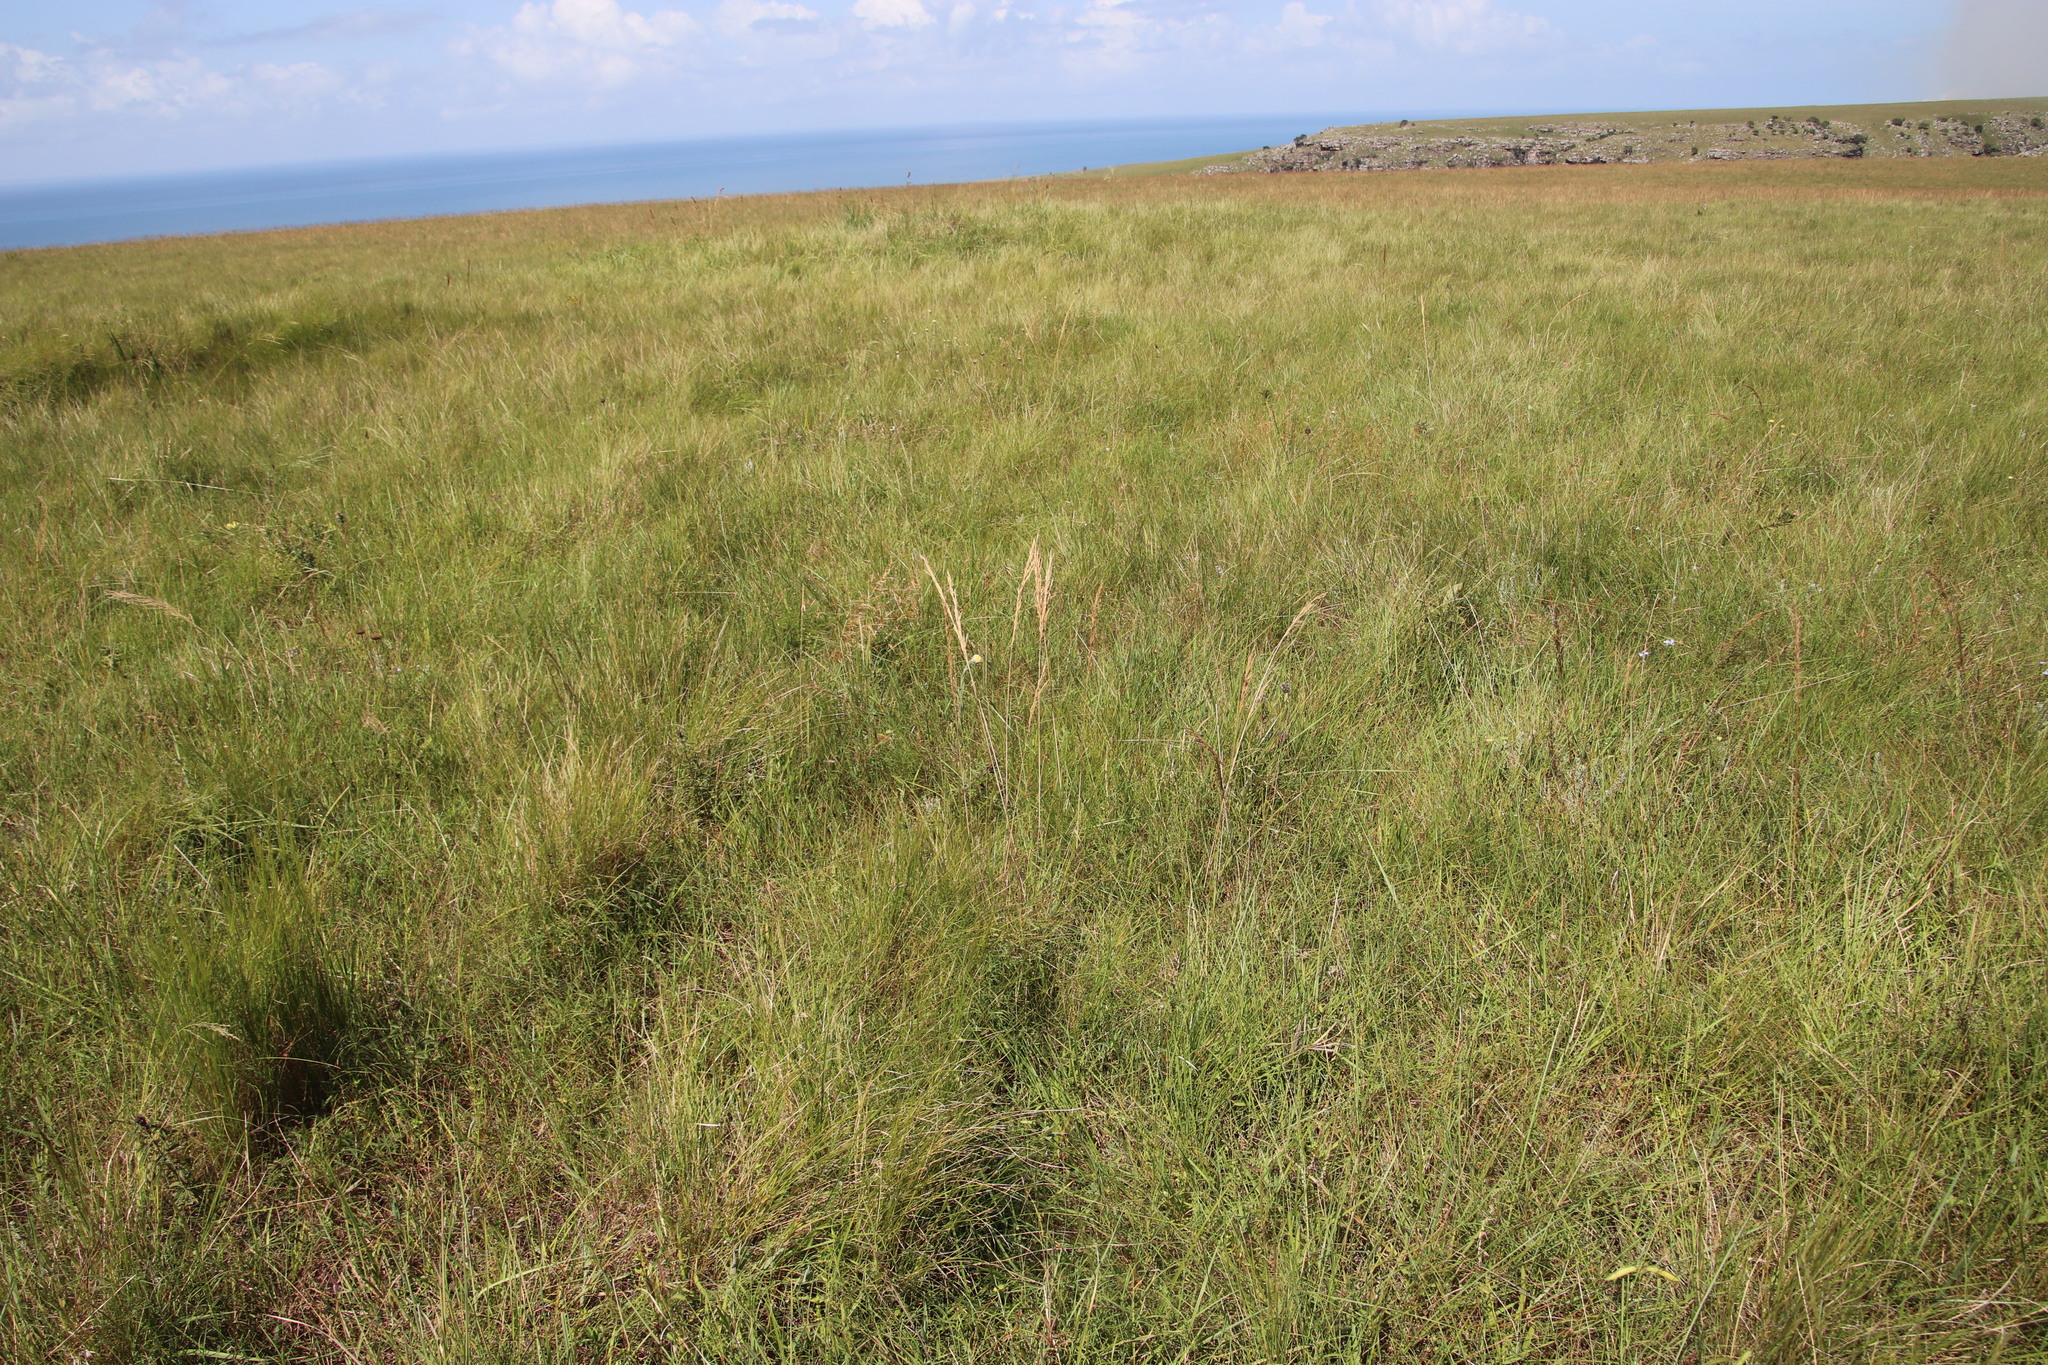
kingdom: Plantae
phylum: Tracheophyta
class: Liliopsida
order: Poales
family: Poaceae
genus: Loudetia
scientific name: Loudetia simplex
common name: Common russet grass
